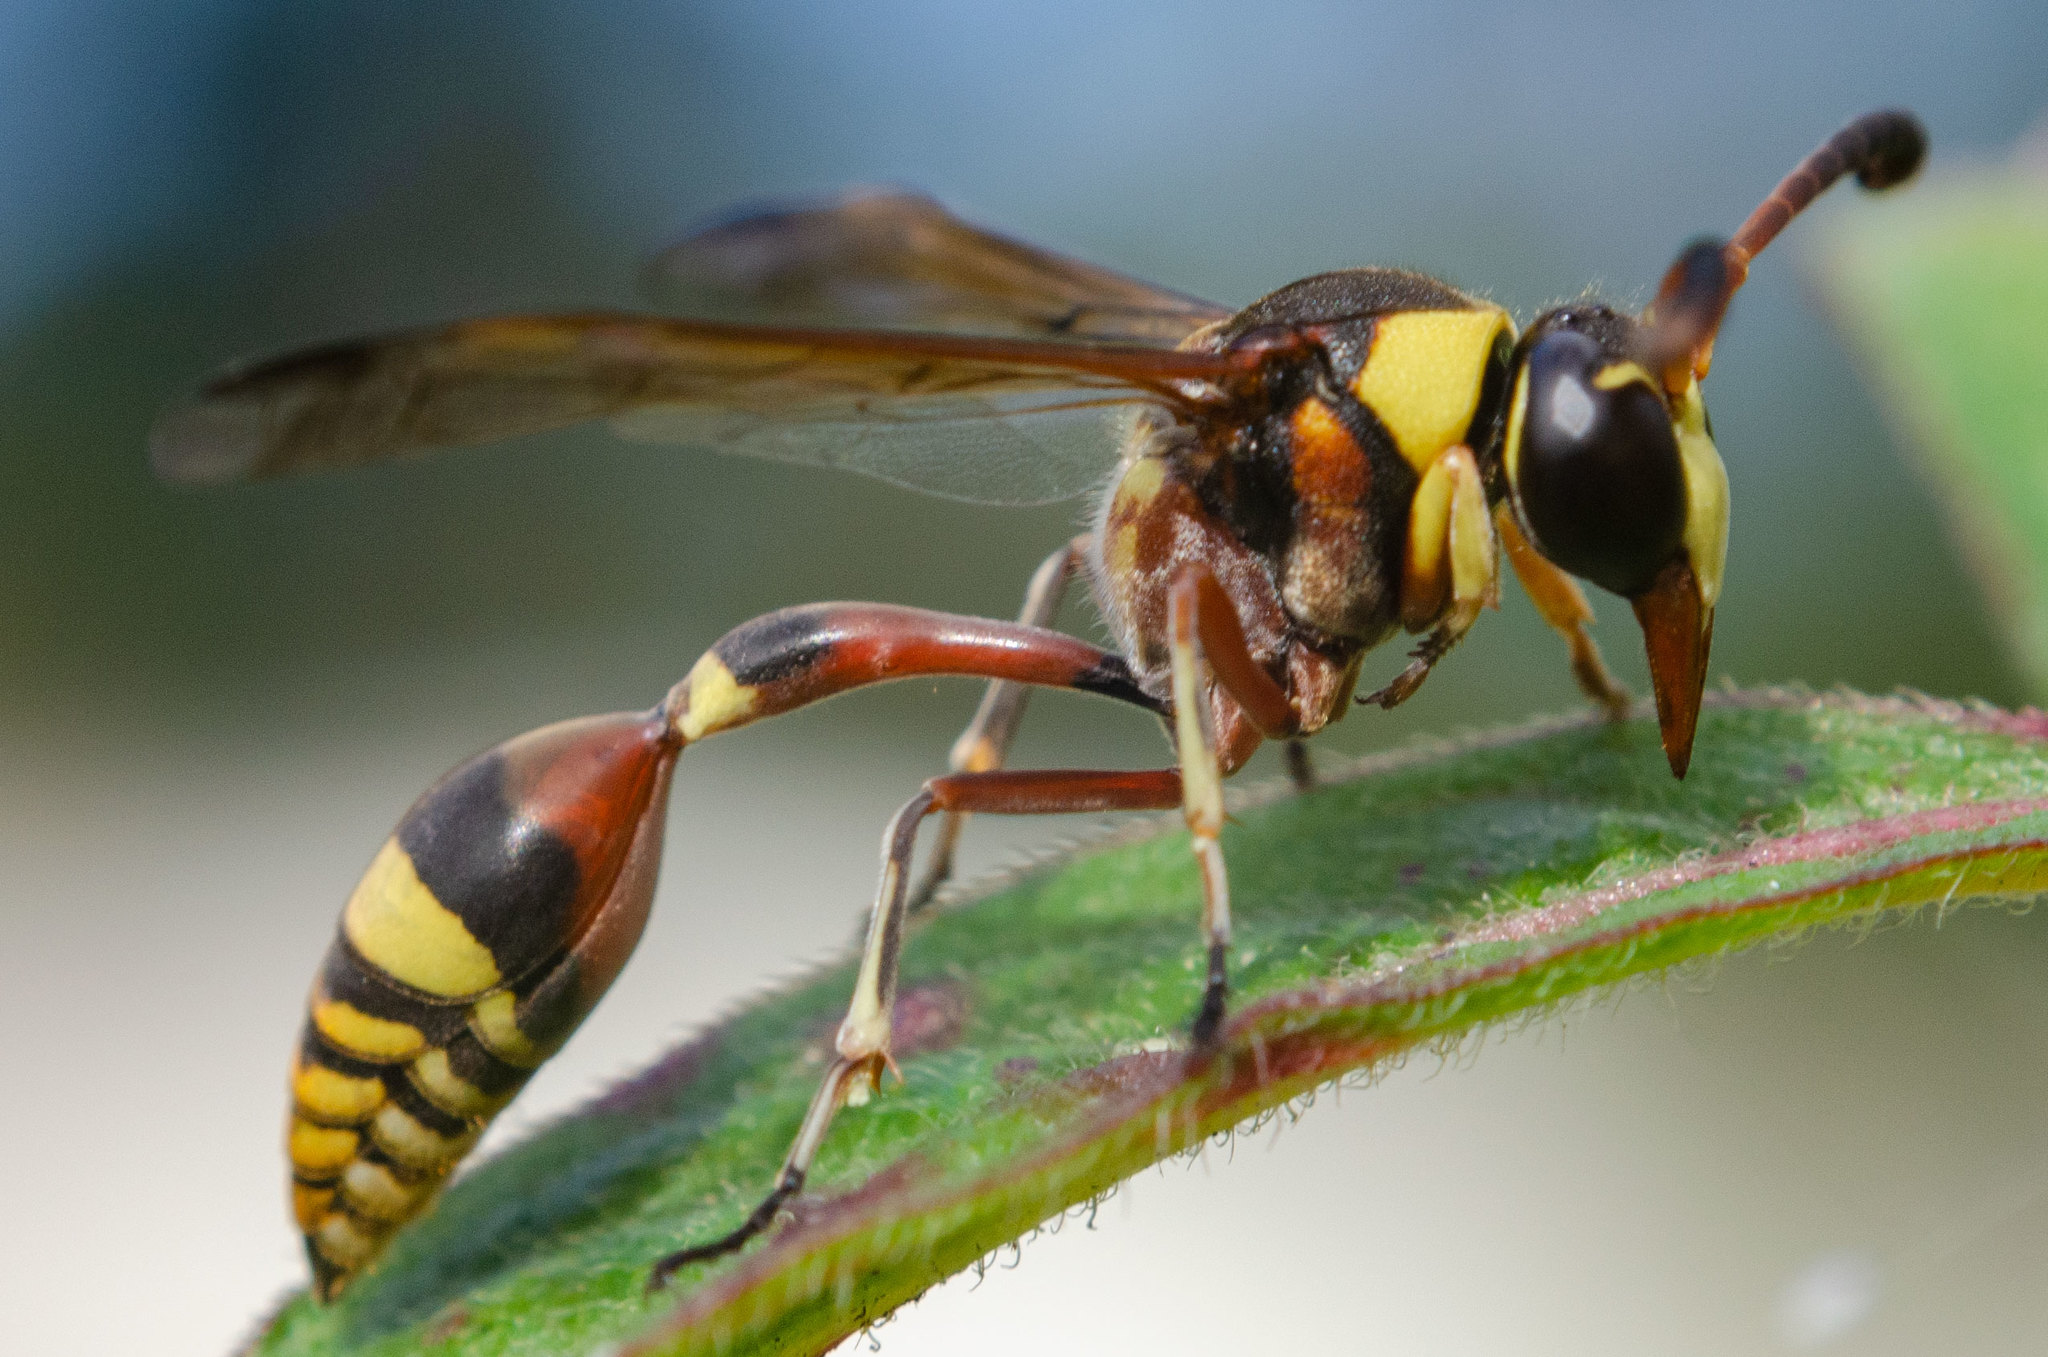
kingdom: Animalia
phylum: Arthropoda
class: Insecta
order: Hymenoptera
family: Eumenidae
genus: Delta
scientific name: Delta esuriens
